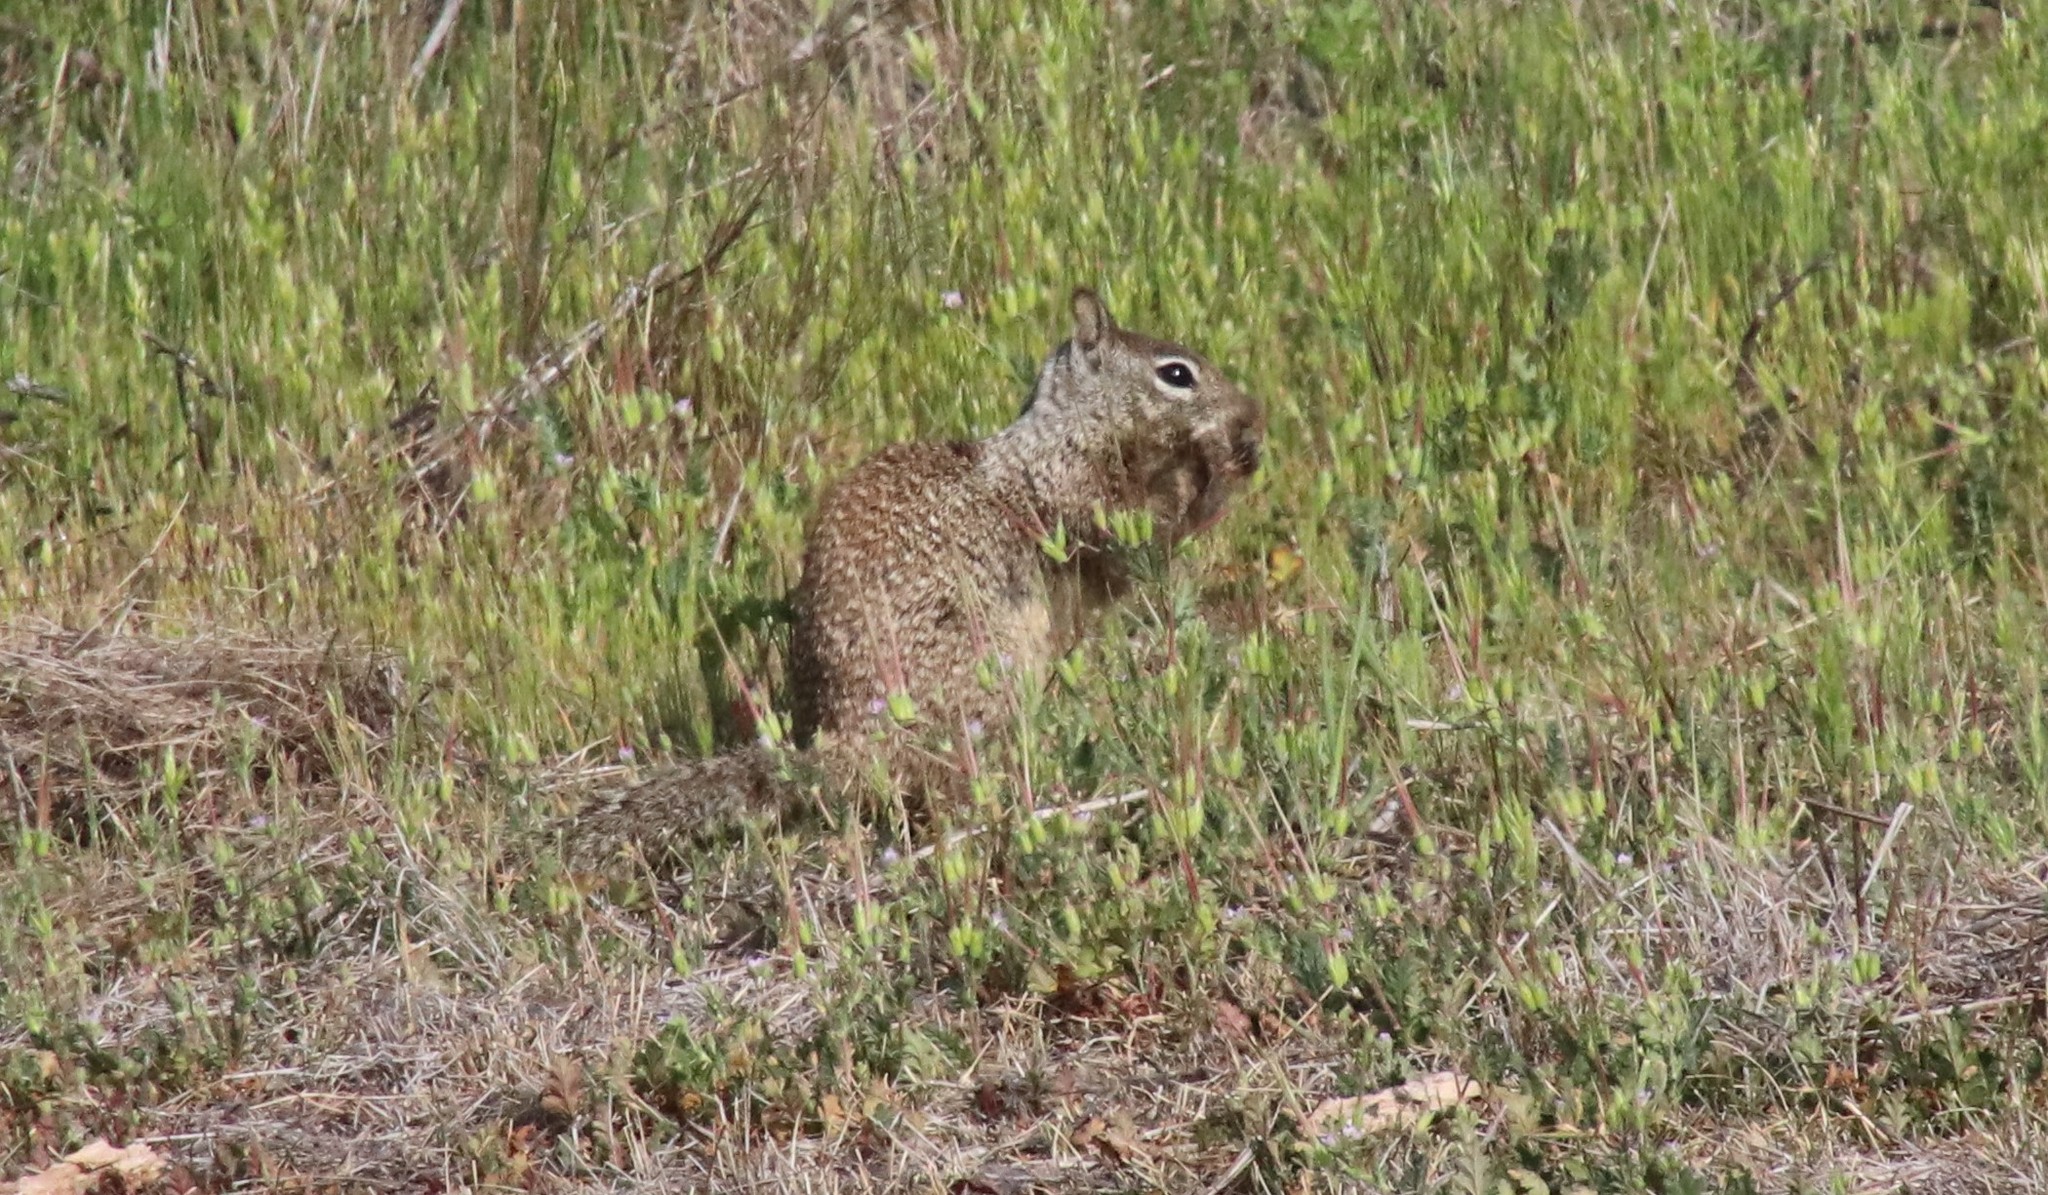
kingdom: Animalia
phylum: Chordata
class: Mammalia
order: Rodentia
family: Sciuridae
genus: Otospermophilus
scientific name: Otospermophilus beecheyi
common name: California ground squirrel
